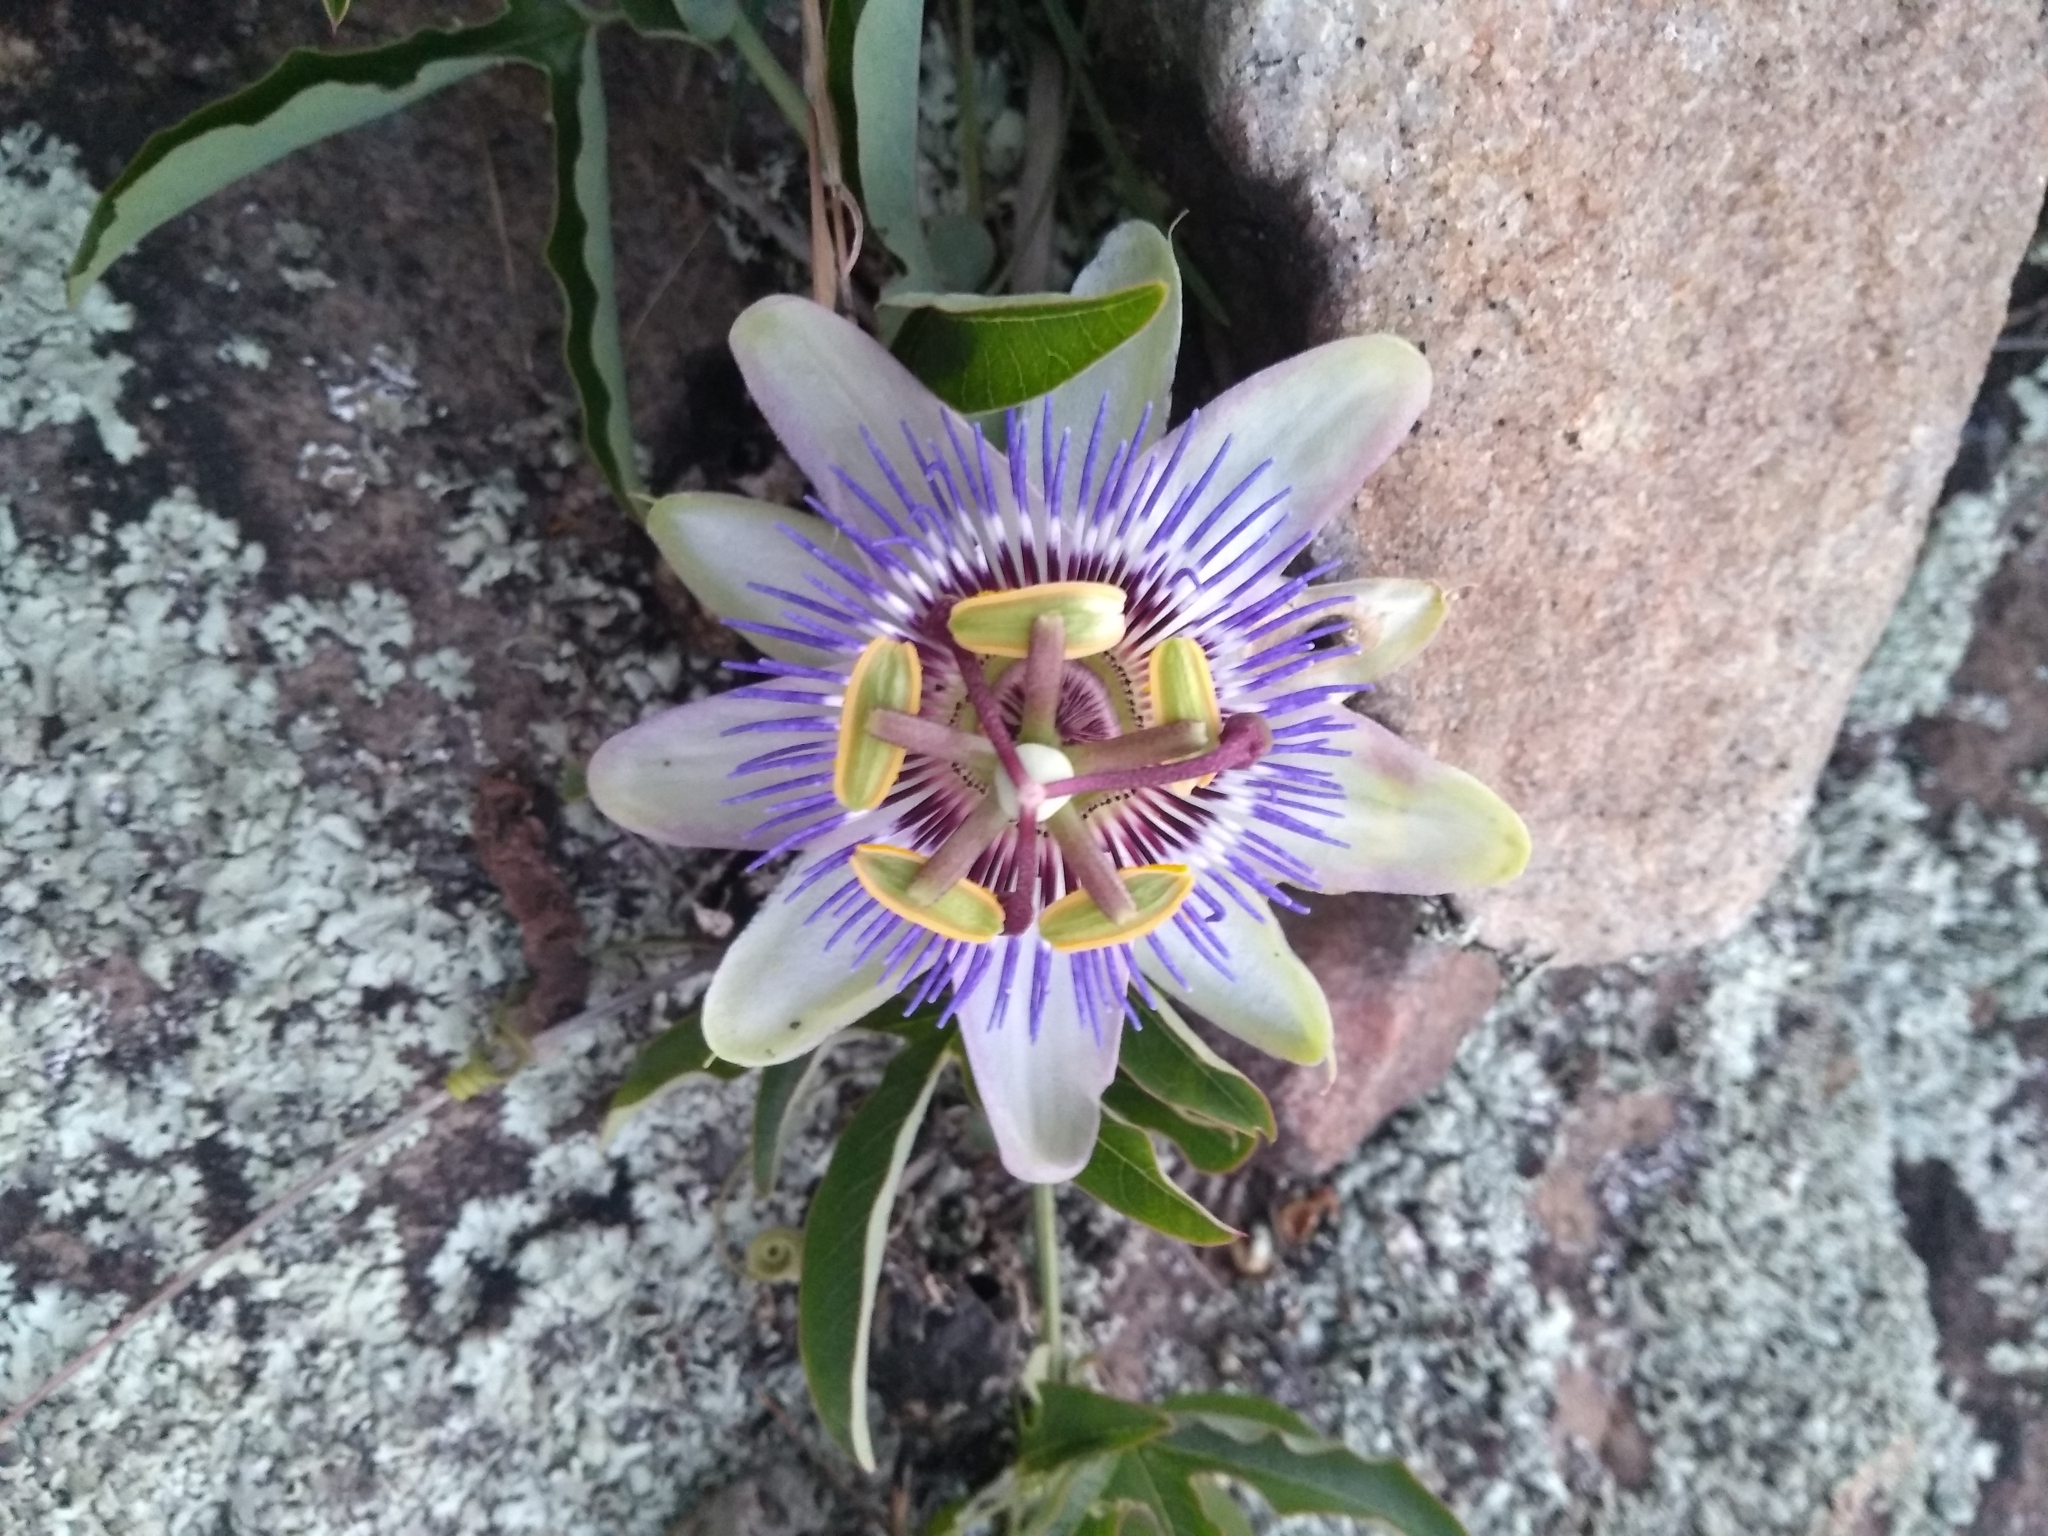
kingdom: Plantae
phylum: Tracheophyta
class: Magnoliopsida
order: Malpighiales
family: Passifloraceae
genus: Passiflora
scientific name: Passiflora caerulea
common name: Blue passionflower
